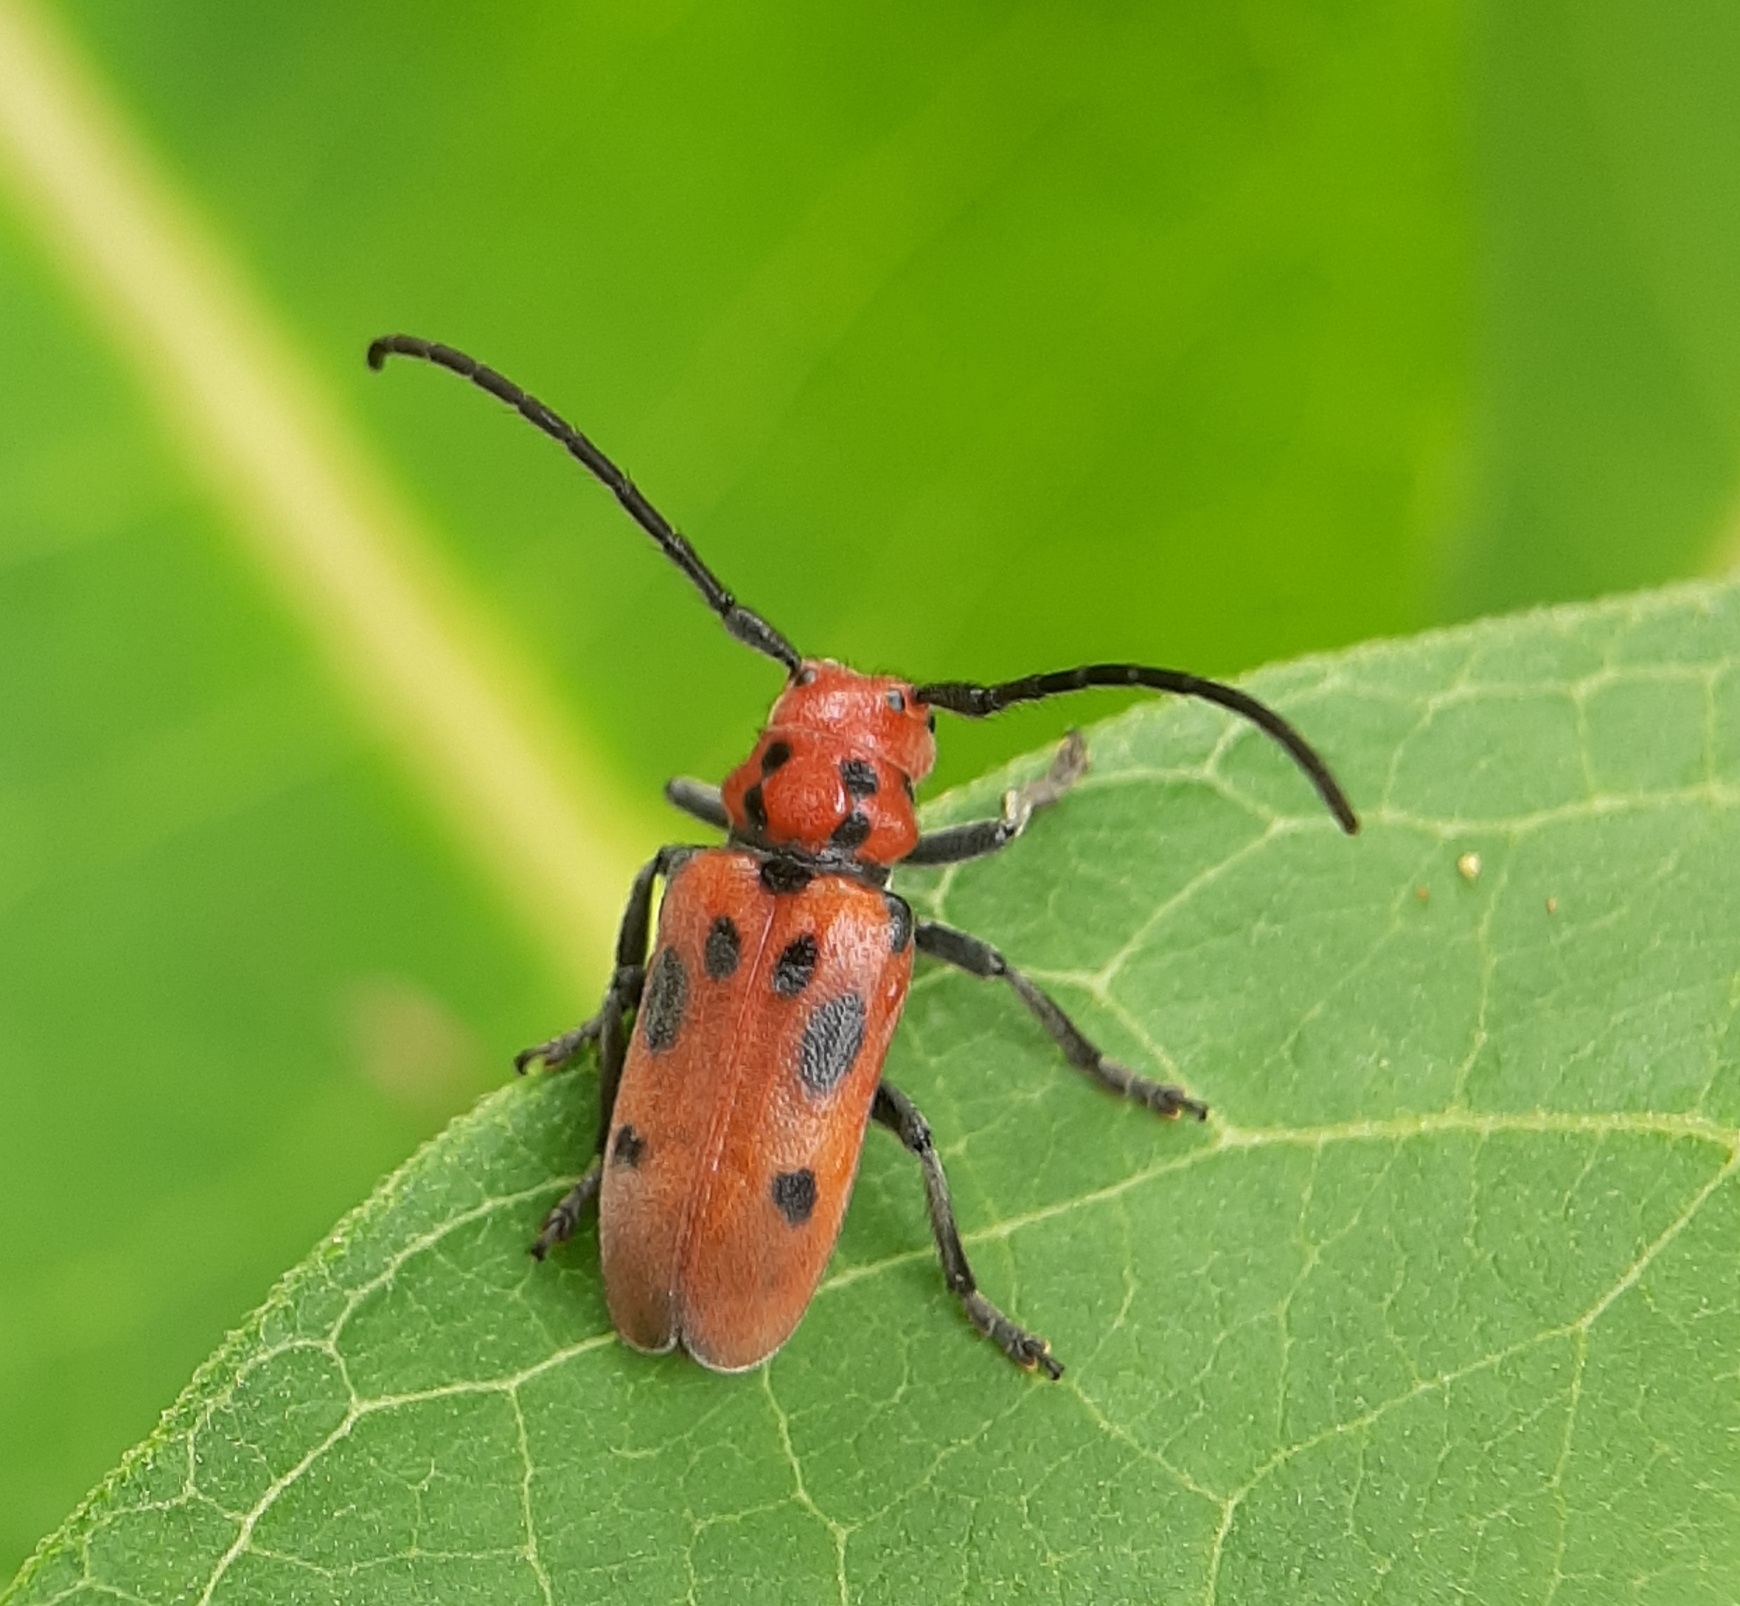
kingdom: Animalia
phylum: Arthropoda
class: Insecta
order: Coleoptera
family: Cerambycidae
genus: Tetraopes
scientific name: Tetraopes tetrophthalmus
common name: Red milkweed beetle
